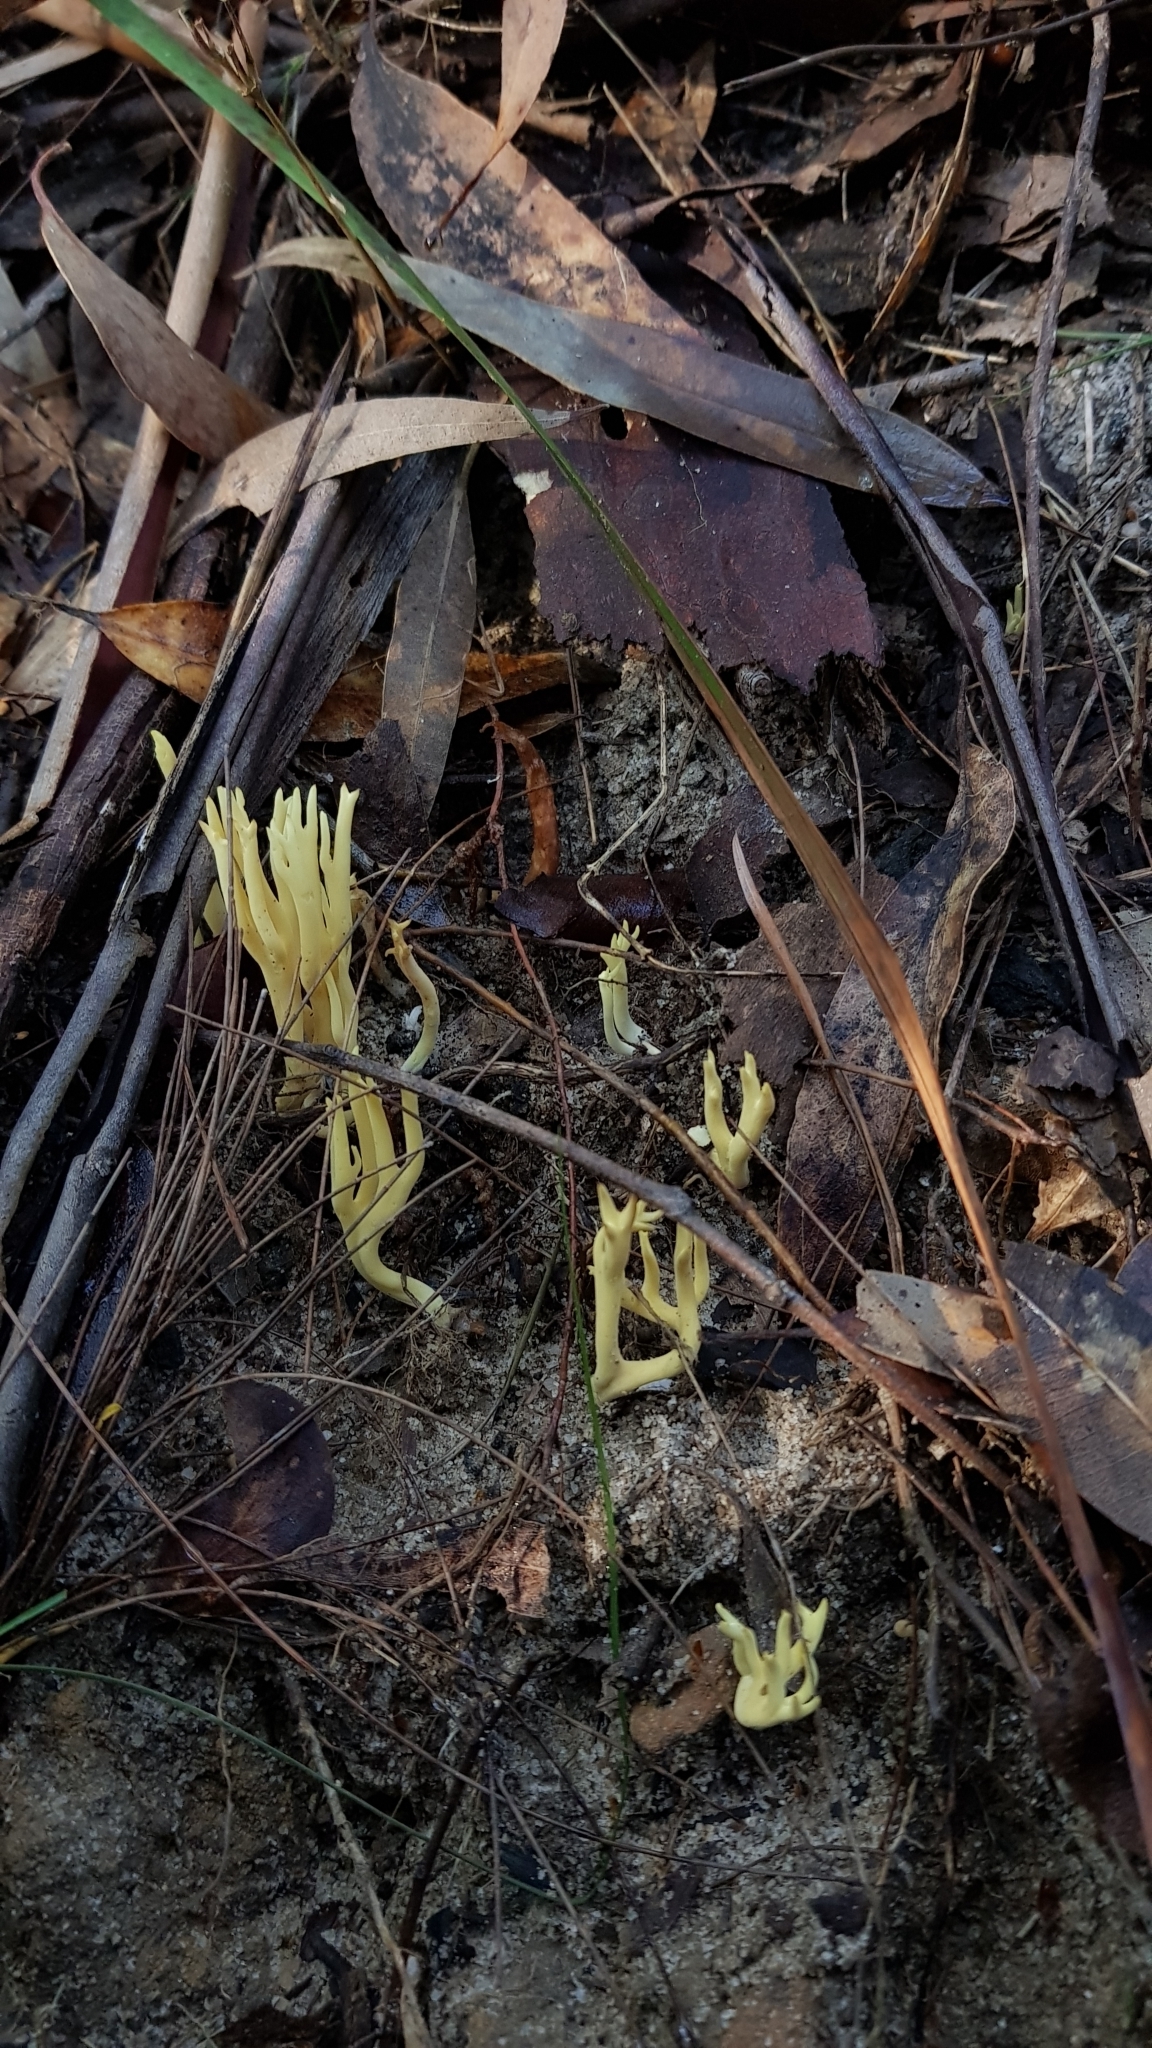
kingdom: Fungi
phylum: Basidiomycota
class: Agaricomycetes
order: Gomphales
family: Gomphaceae
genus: Ramaria
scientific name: Ramaria lorithamnus
